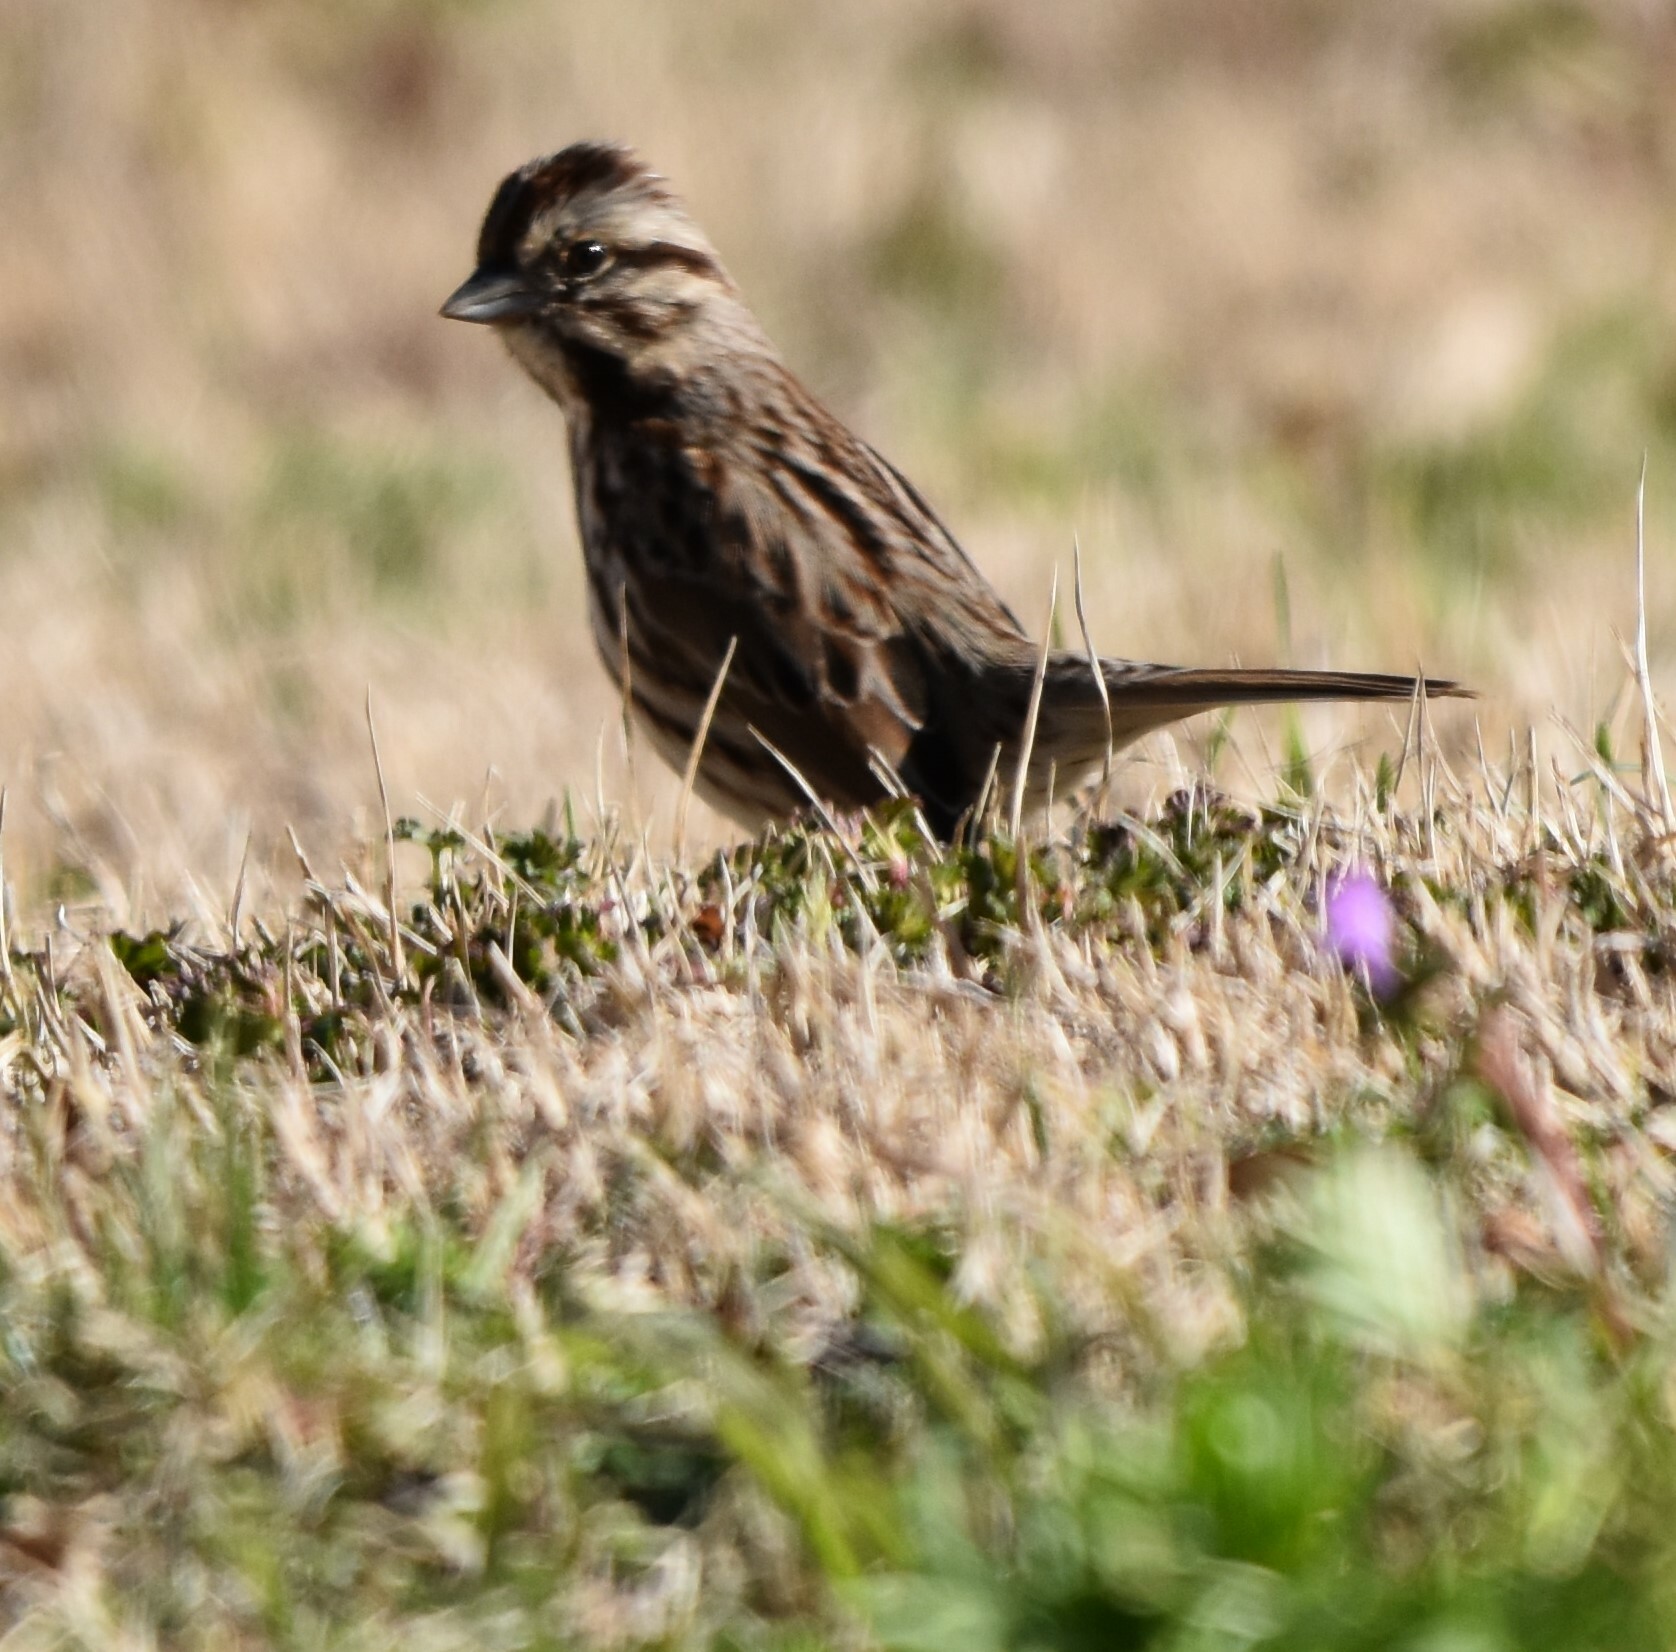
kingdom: Animalia
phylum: Chordata
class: Aves
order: Passeriformes
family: Passerellidae
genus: Melospiza
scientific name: Melospiza melodia
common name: Song sparrow
